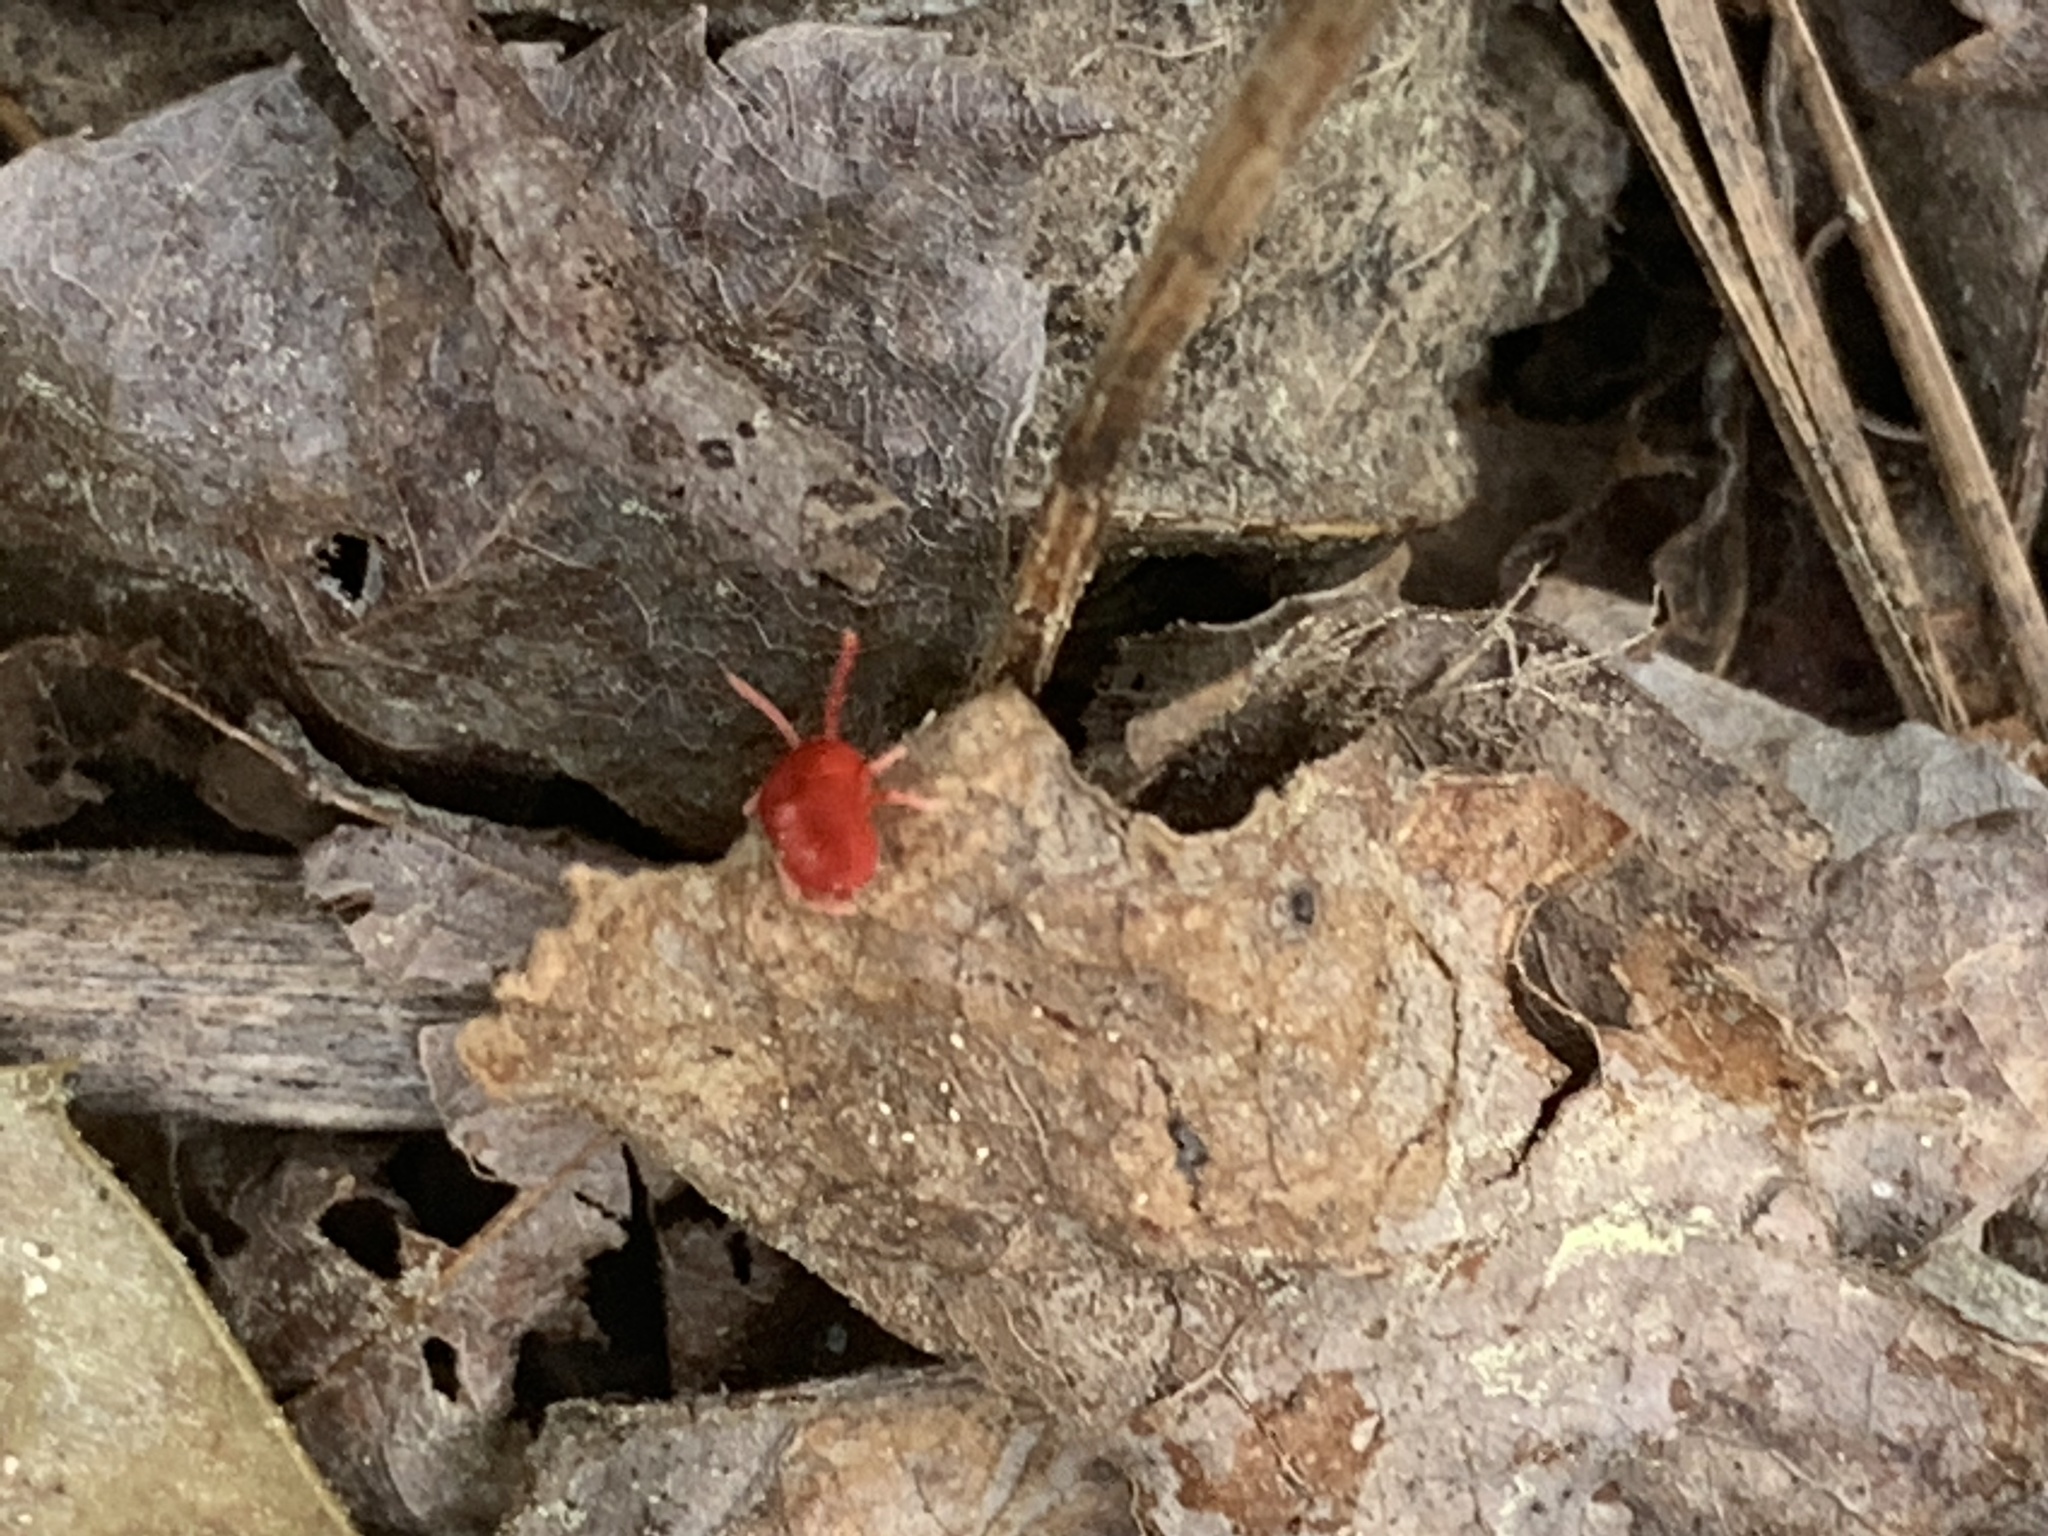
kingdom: Animalia
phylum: Arthropoda
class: Arachnida
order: Trombidiformes
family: Trombidiidae
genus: Trombidium
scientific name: Trombidium
